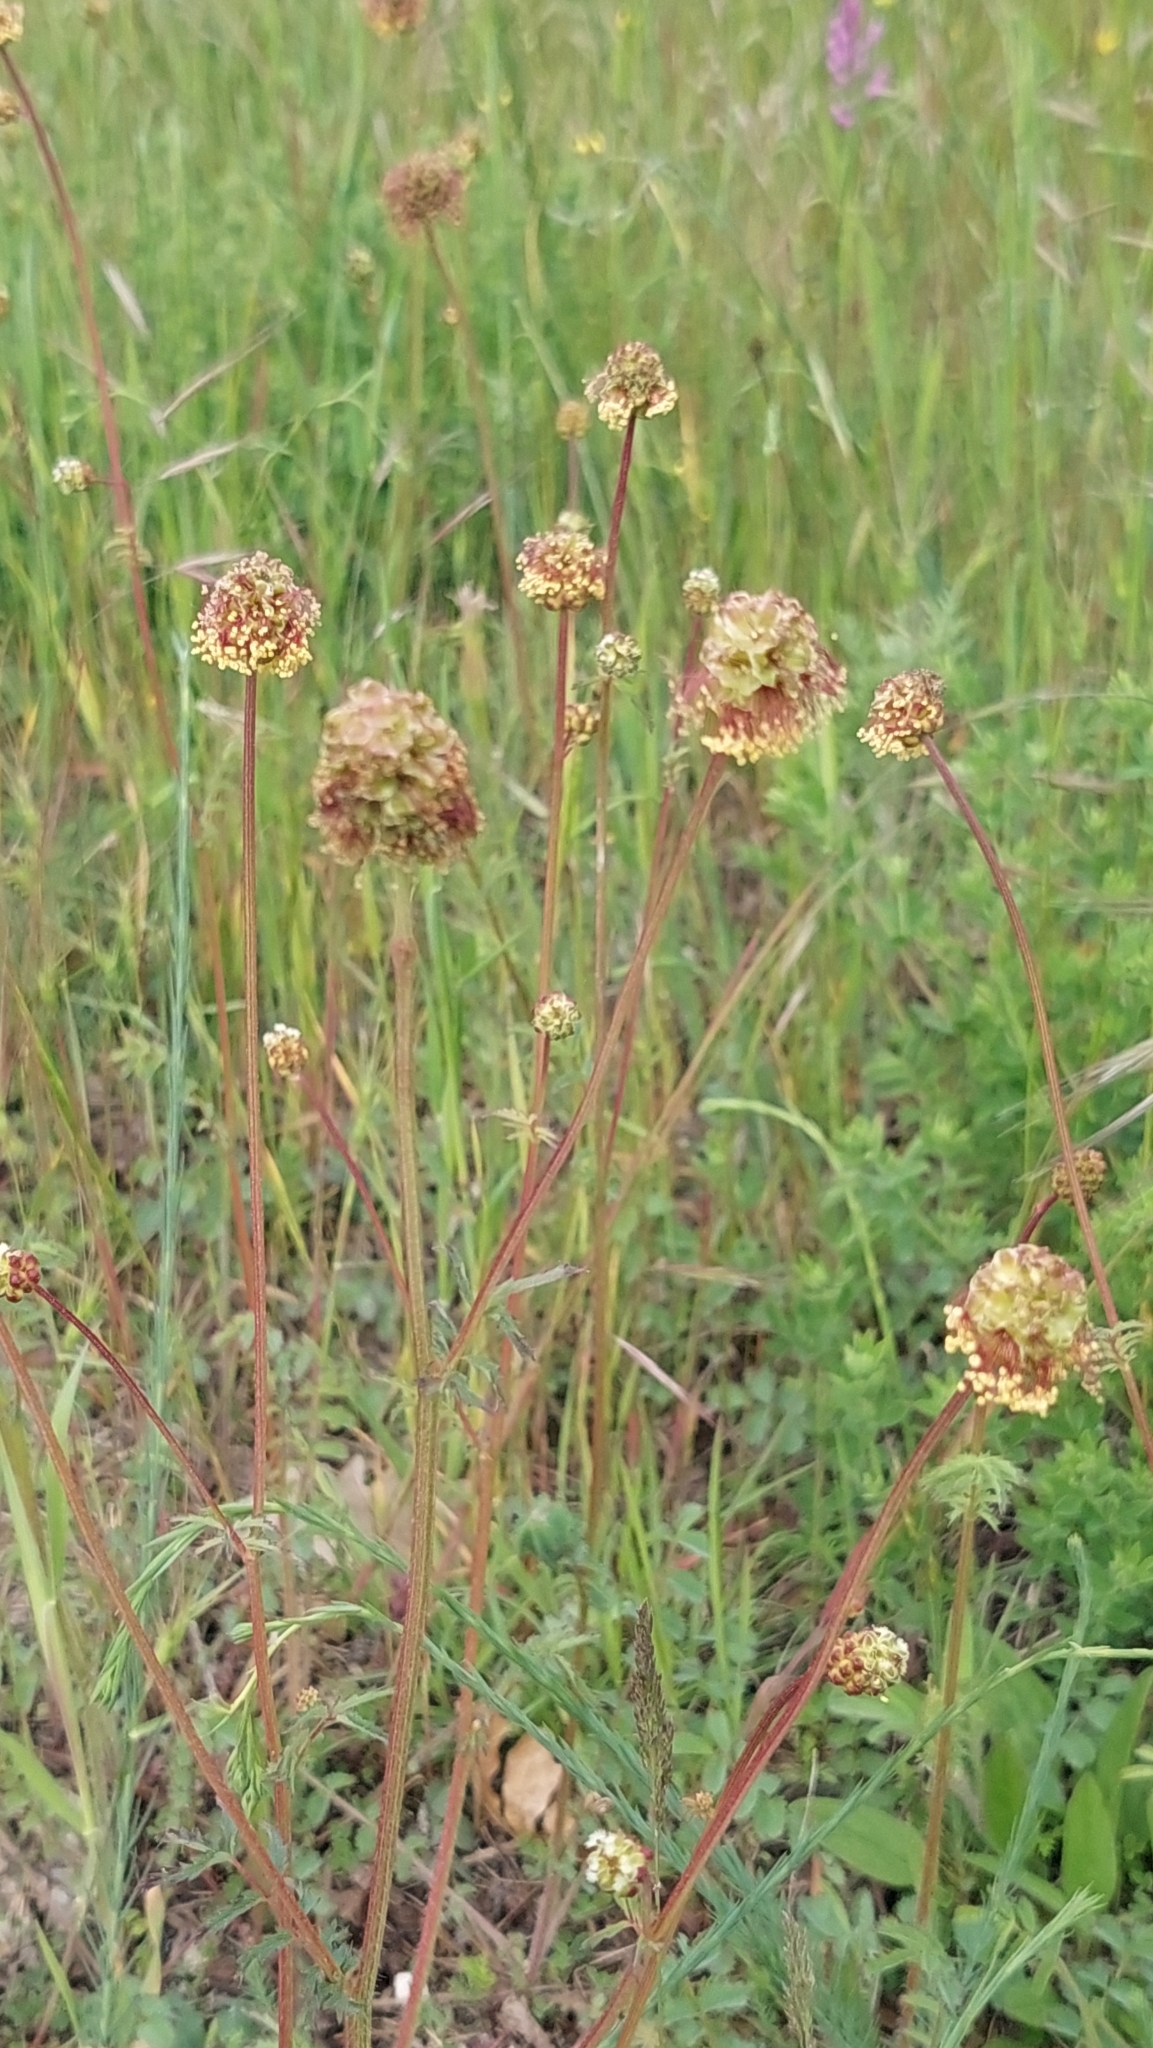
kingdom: Plantae
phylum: Tracheophyta
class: Magnoliopsida
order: Rosales
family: Rosaceae
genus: Poterium
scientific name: Poterium sanguisorba
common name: Salad burnet
